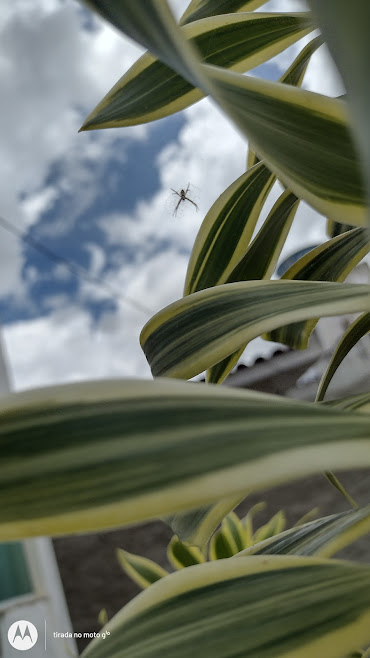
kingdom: Animalia
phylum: Arthropoda
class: Arachnida
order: Araneae
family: Araneidae
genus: Argiope
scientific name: Argiope argentata
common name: Orb weavers
